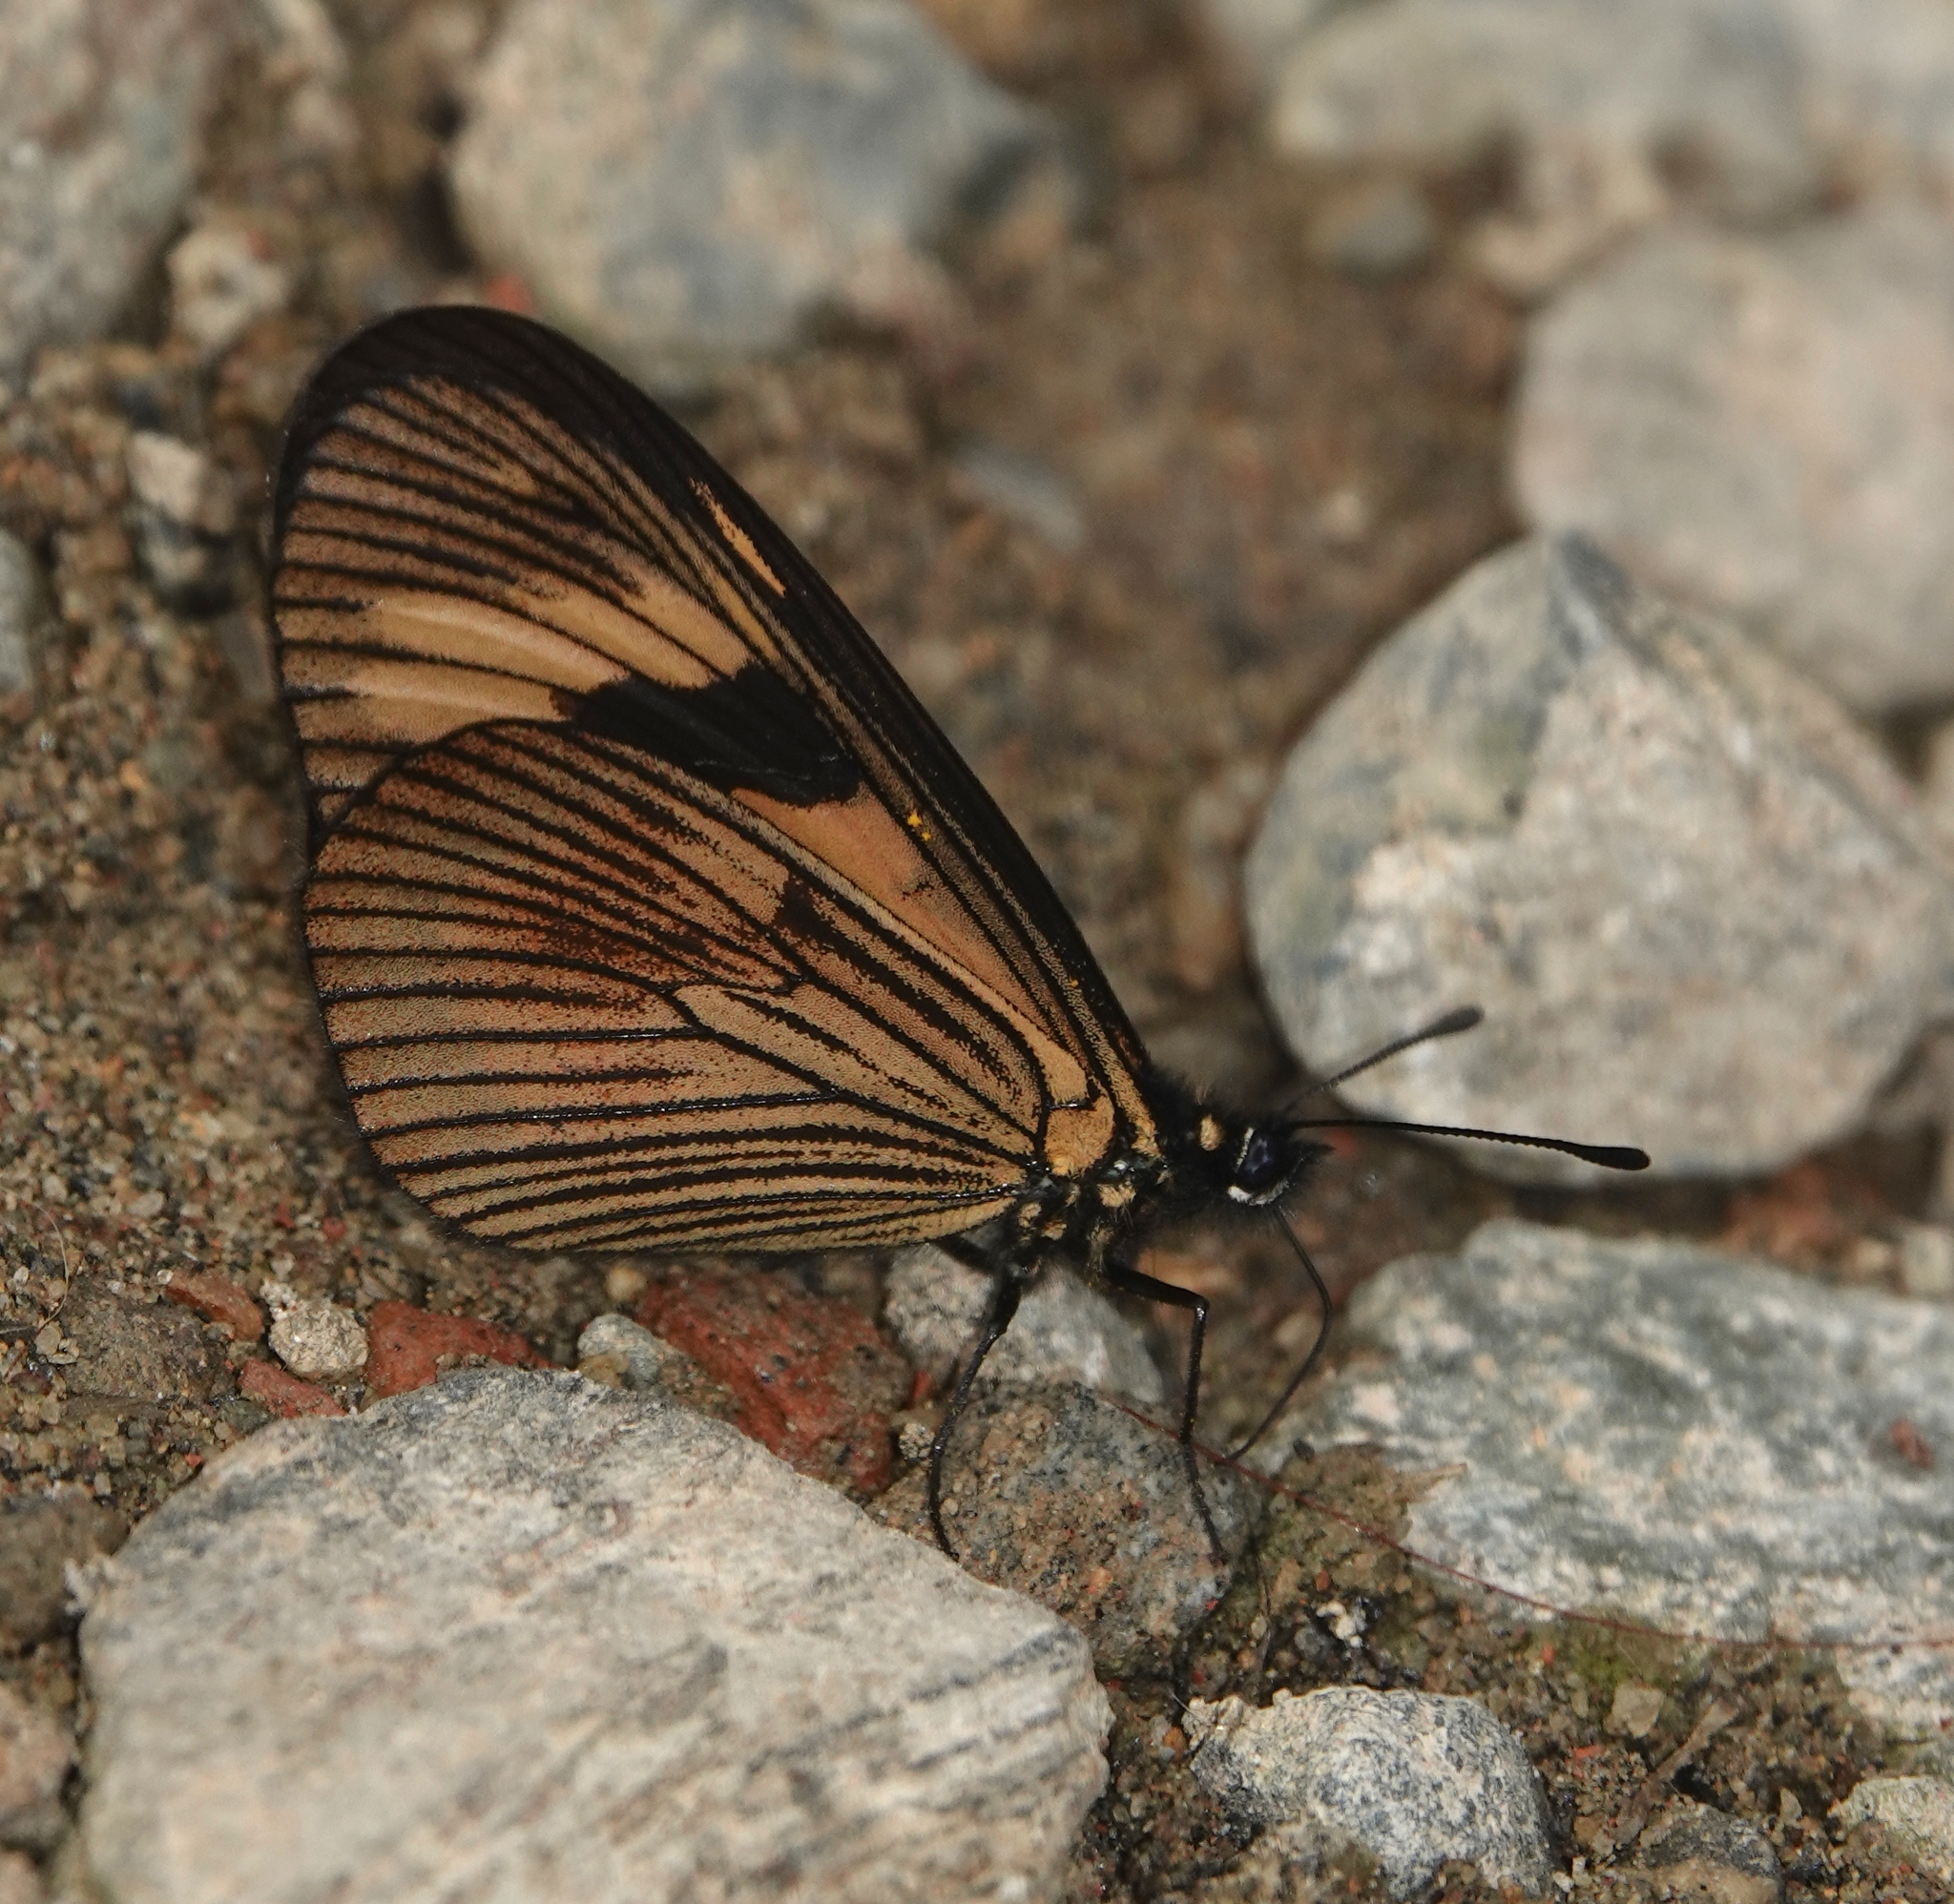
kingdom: Animalia
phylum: Arthropoda
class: Insecta
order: Lepidoptera
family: Nymphalidae
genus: Actinote
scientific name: Actinote anteas
